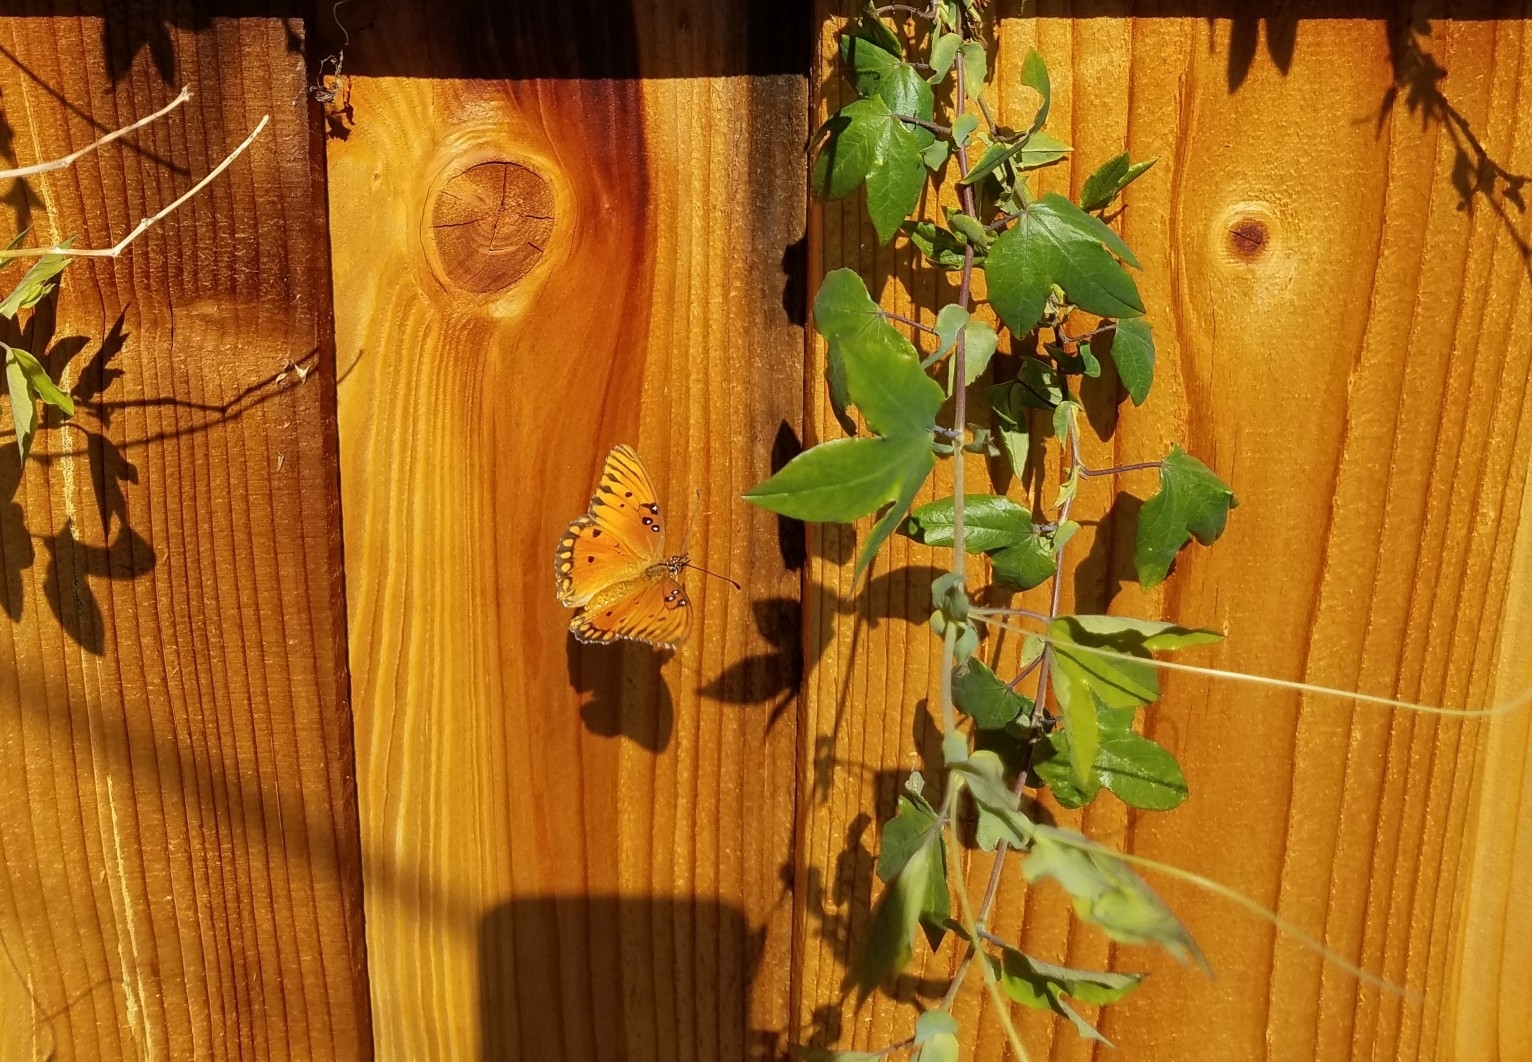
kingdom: Animalia
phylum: Arthropoda
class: Insecta
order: Lepidoptera
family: Nymphalidae
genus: Dione
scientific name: Dione vanillae
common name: Gulf fritillary
